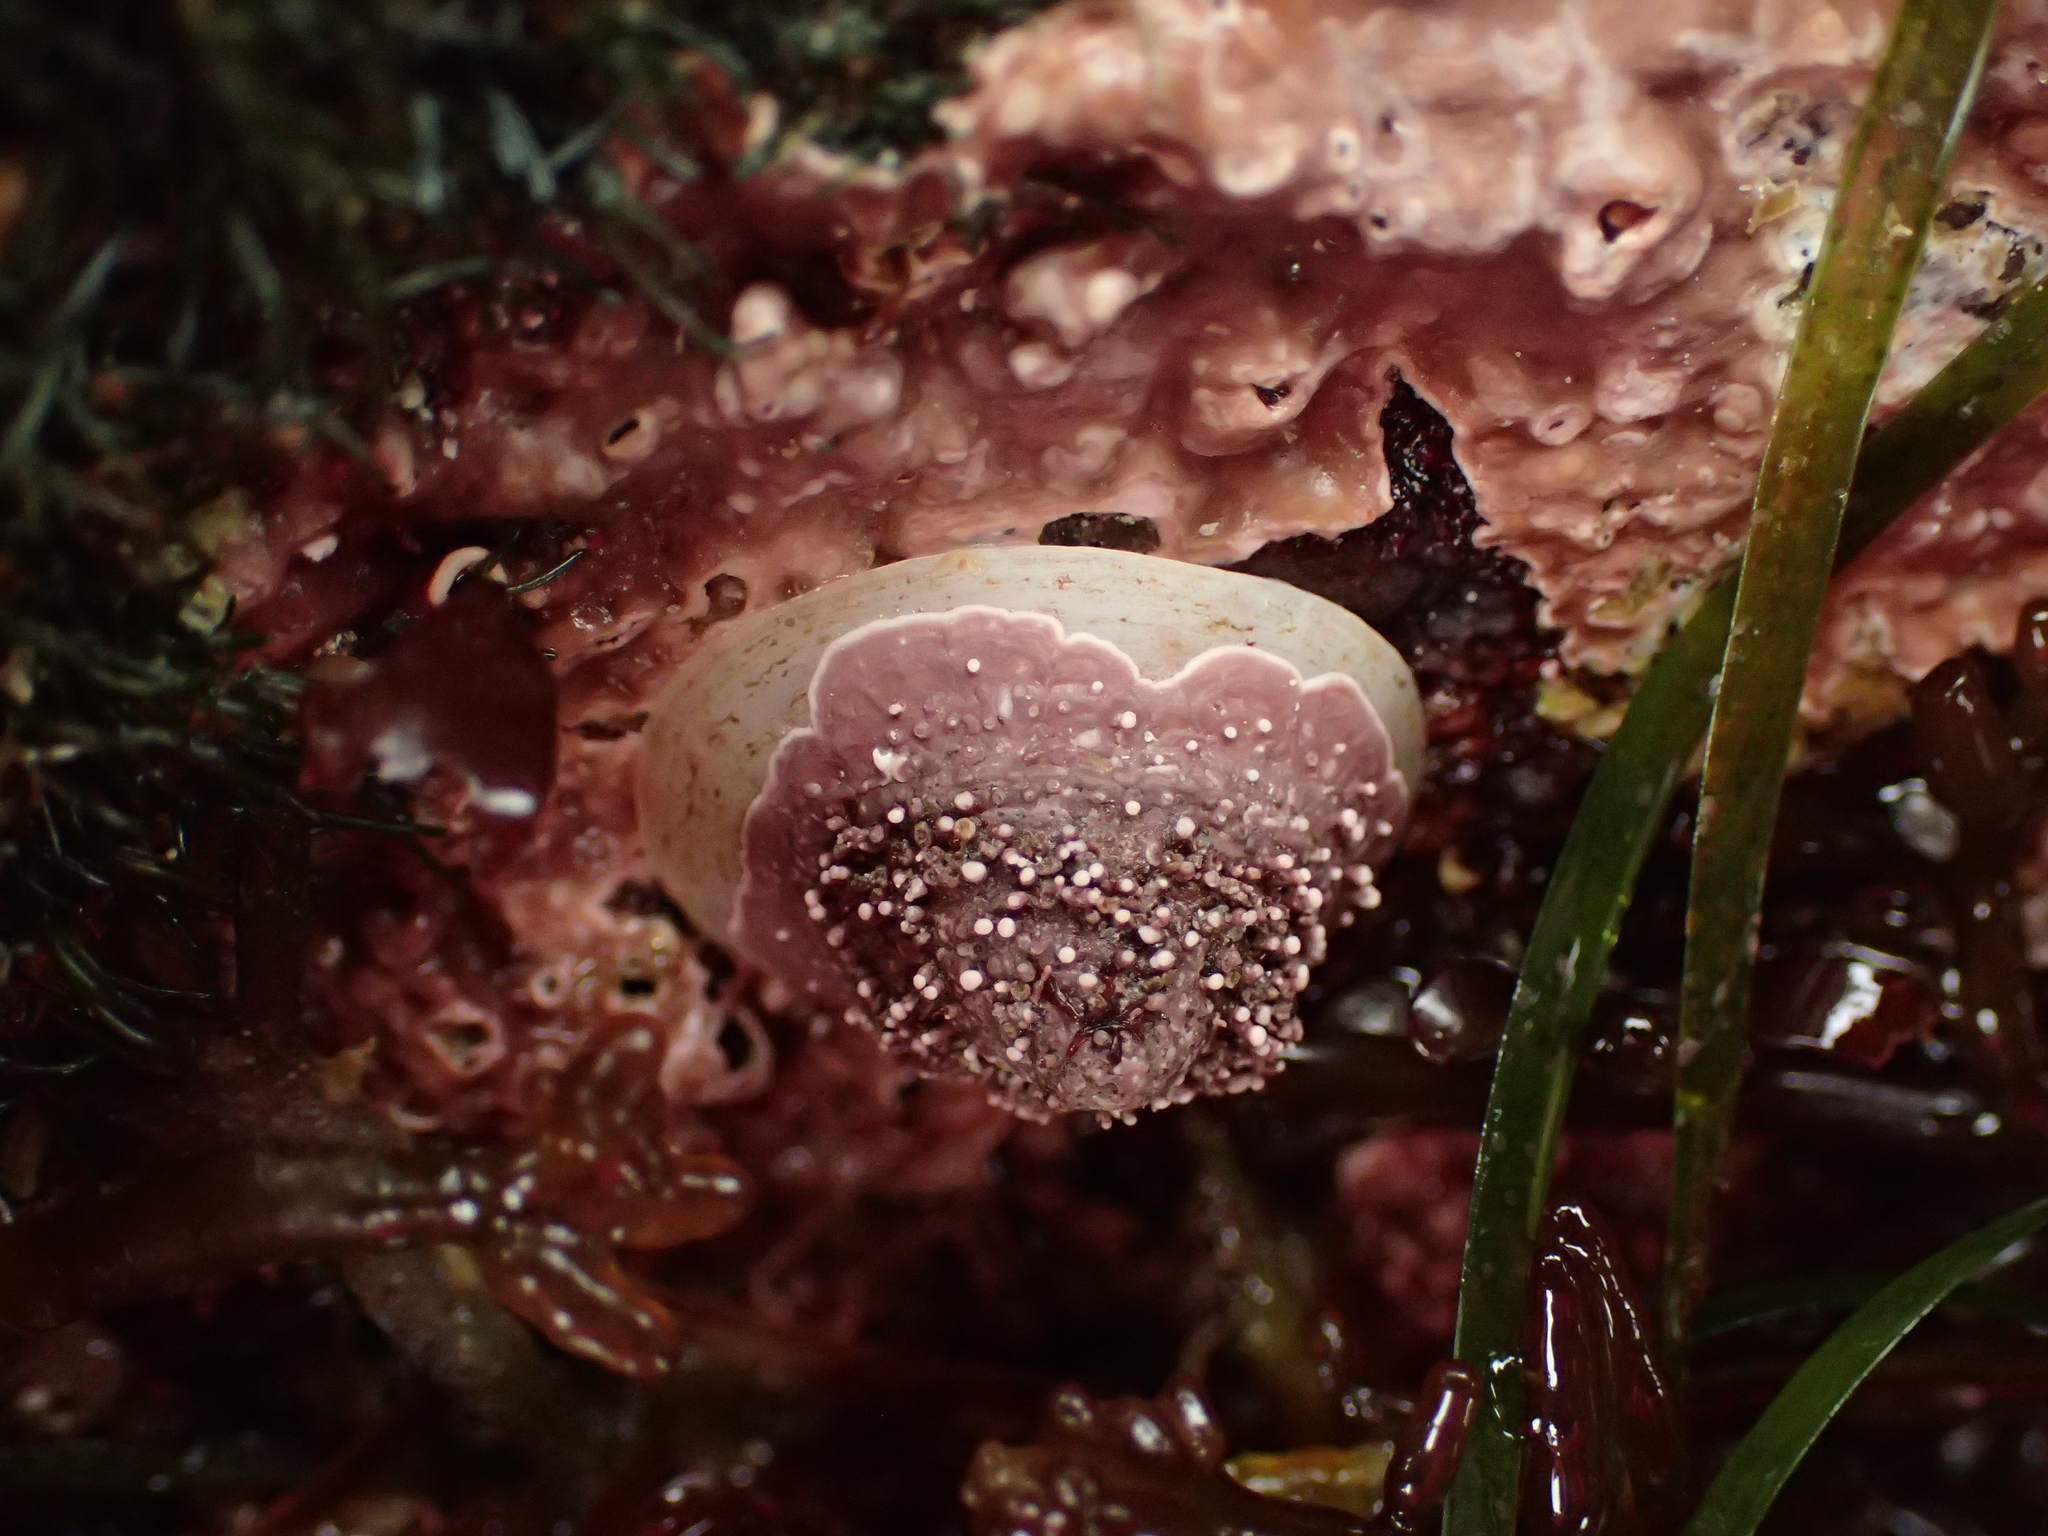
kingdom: Animalia
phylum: Mollusca
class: Gastropoda
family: Acmaeidae
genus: Acmaea
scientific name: Acmaea mitra
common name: Pacific white cap limpet
